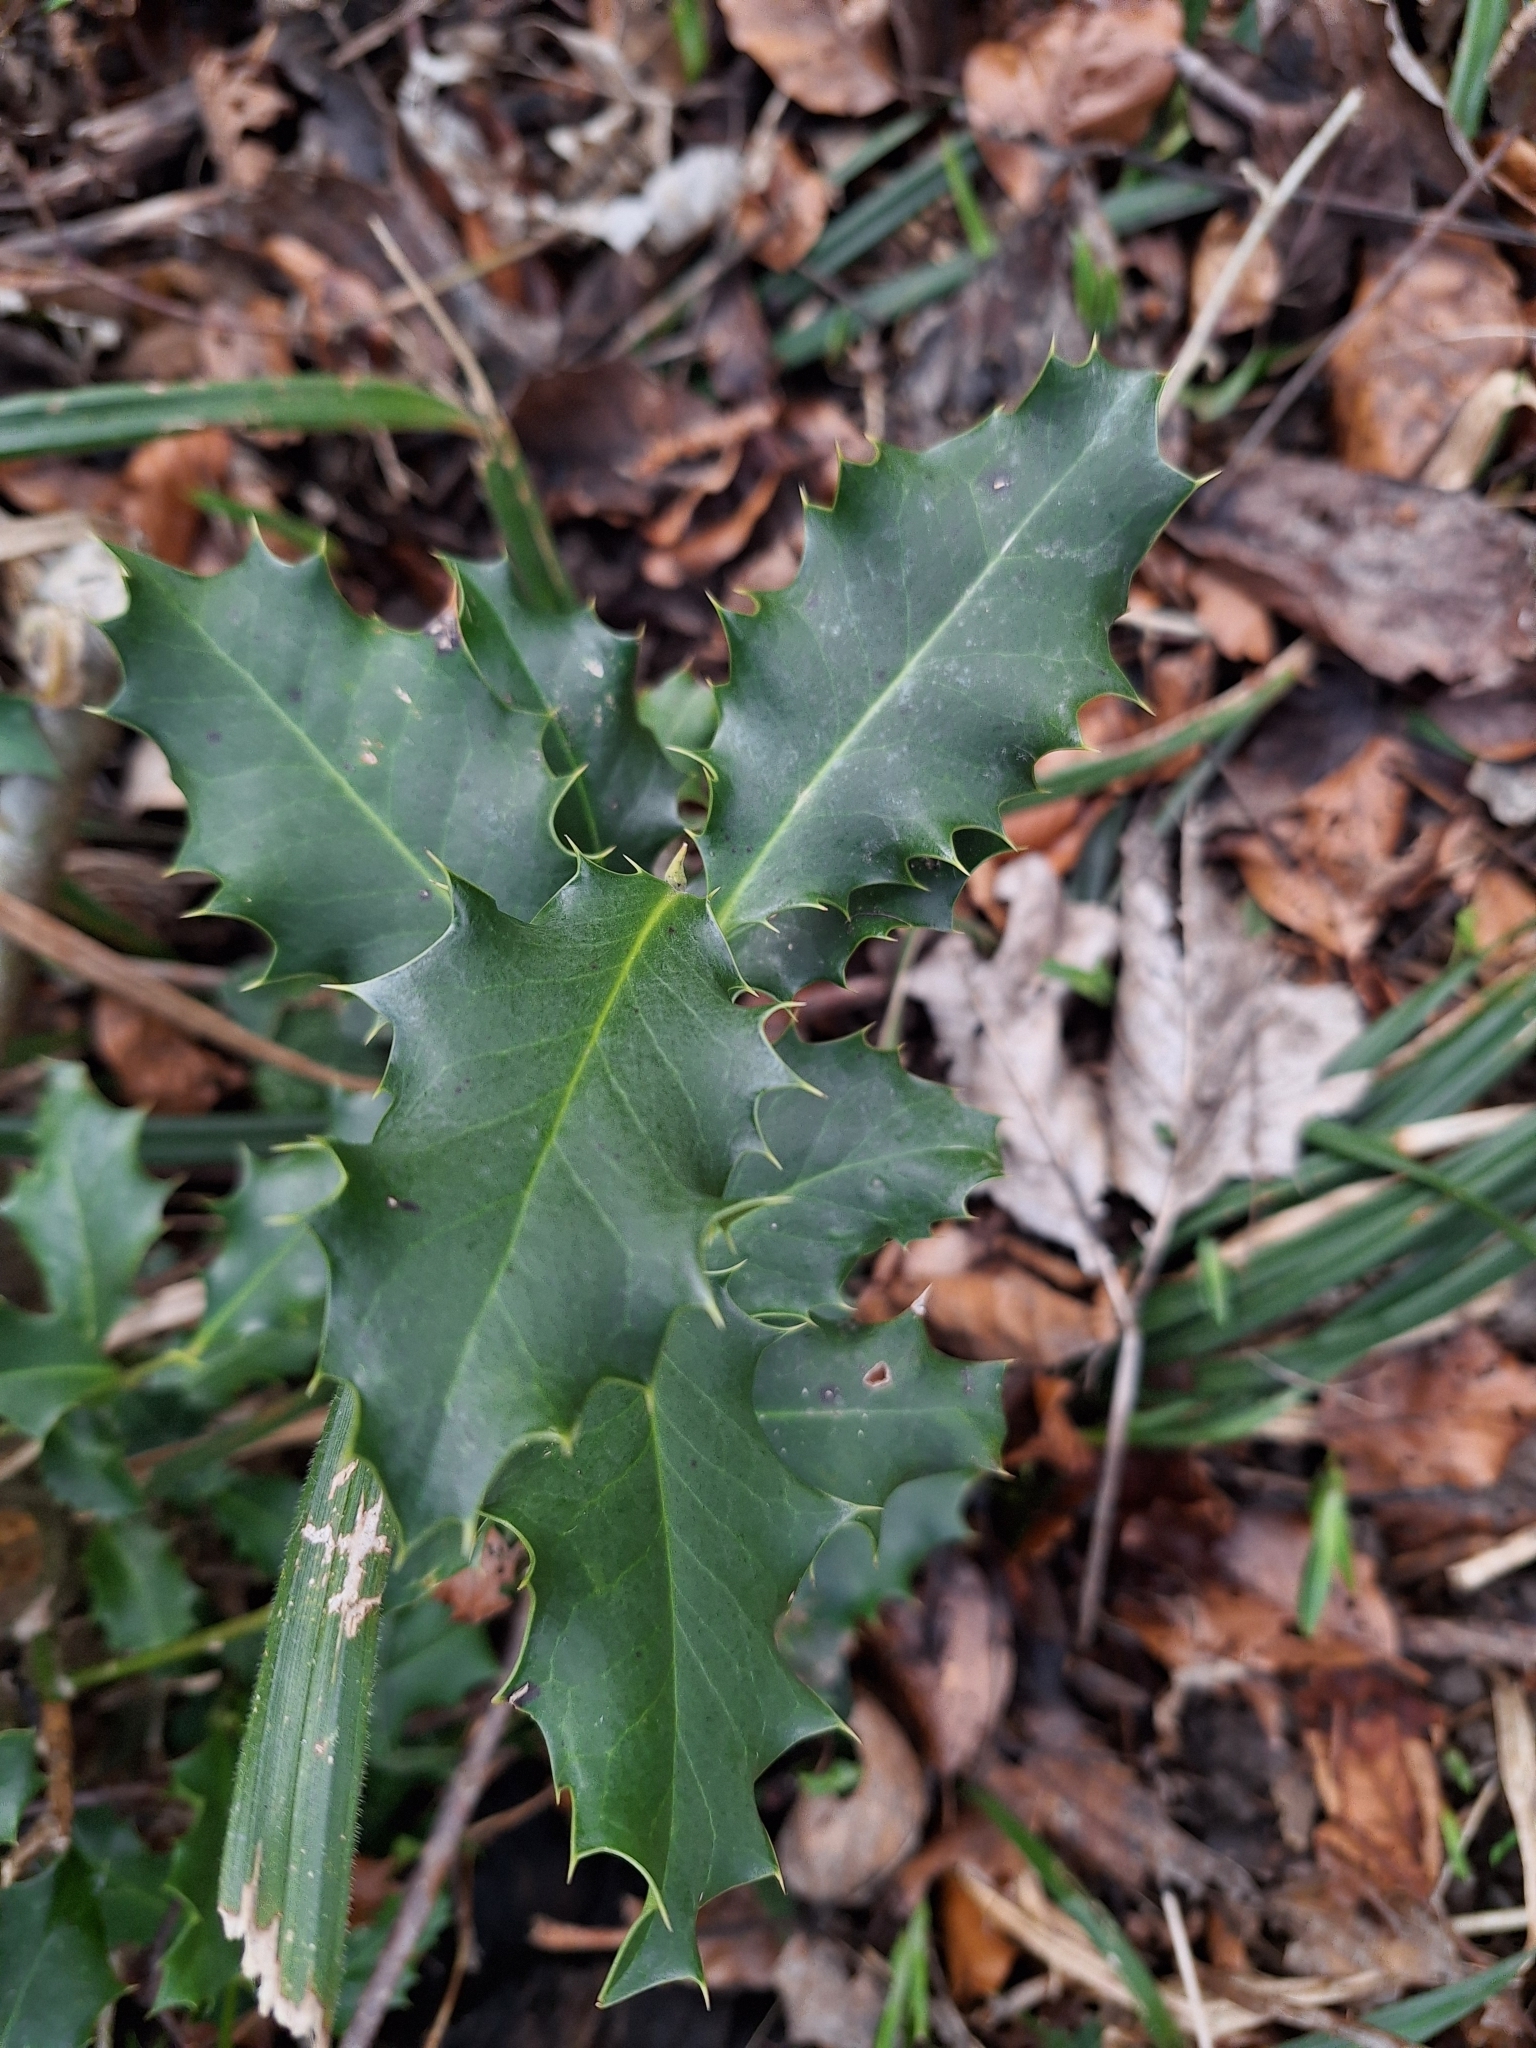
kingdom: Plantae
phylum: Tracheophyta
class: Magnoliopsida
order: Aquifoliales
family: Aquifoliaceae
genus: Ilex
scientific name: Ilex aquifolium
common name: English holly
